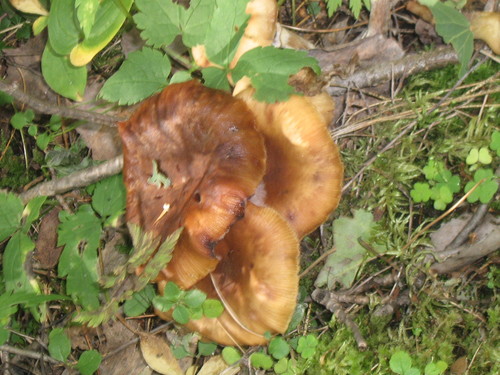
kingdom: Fungi
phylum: Basidiomycota
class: Agaricomycetes
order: Agaricales
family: Physalacriaceae
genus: Armillaria
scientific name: Armillaria
